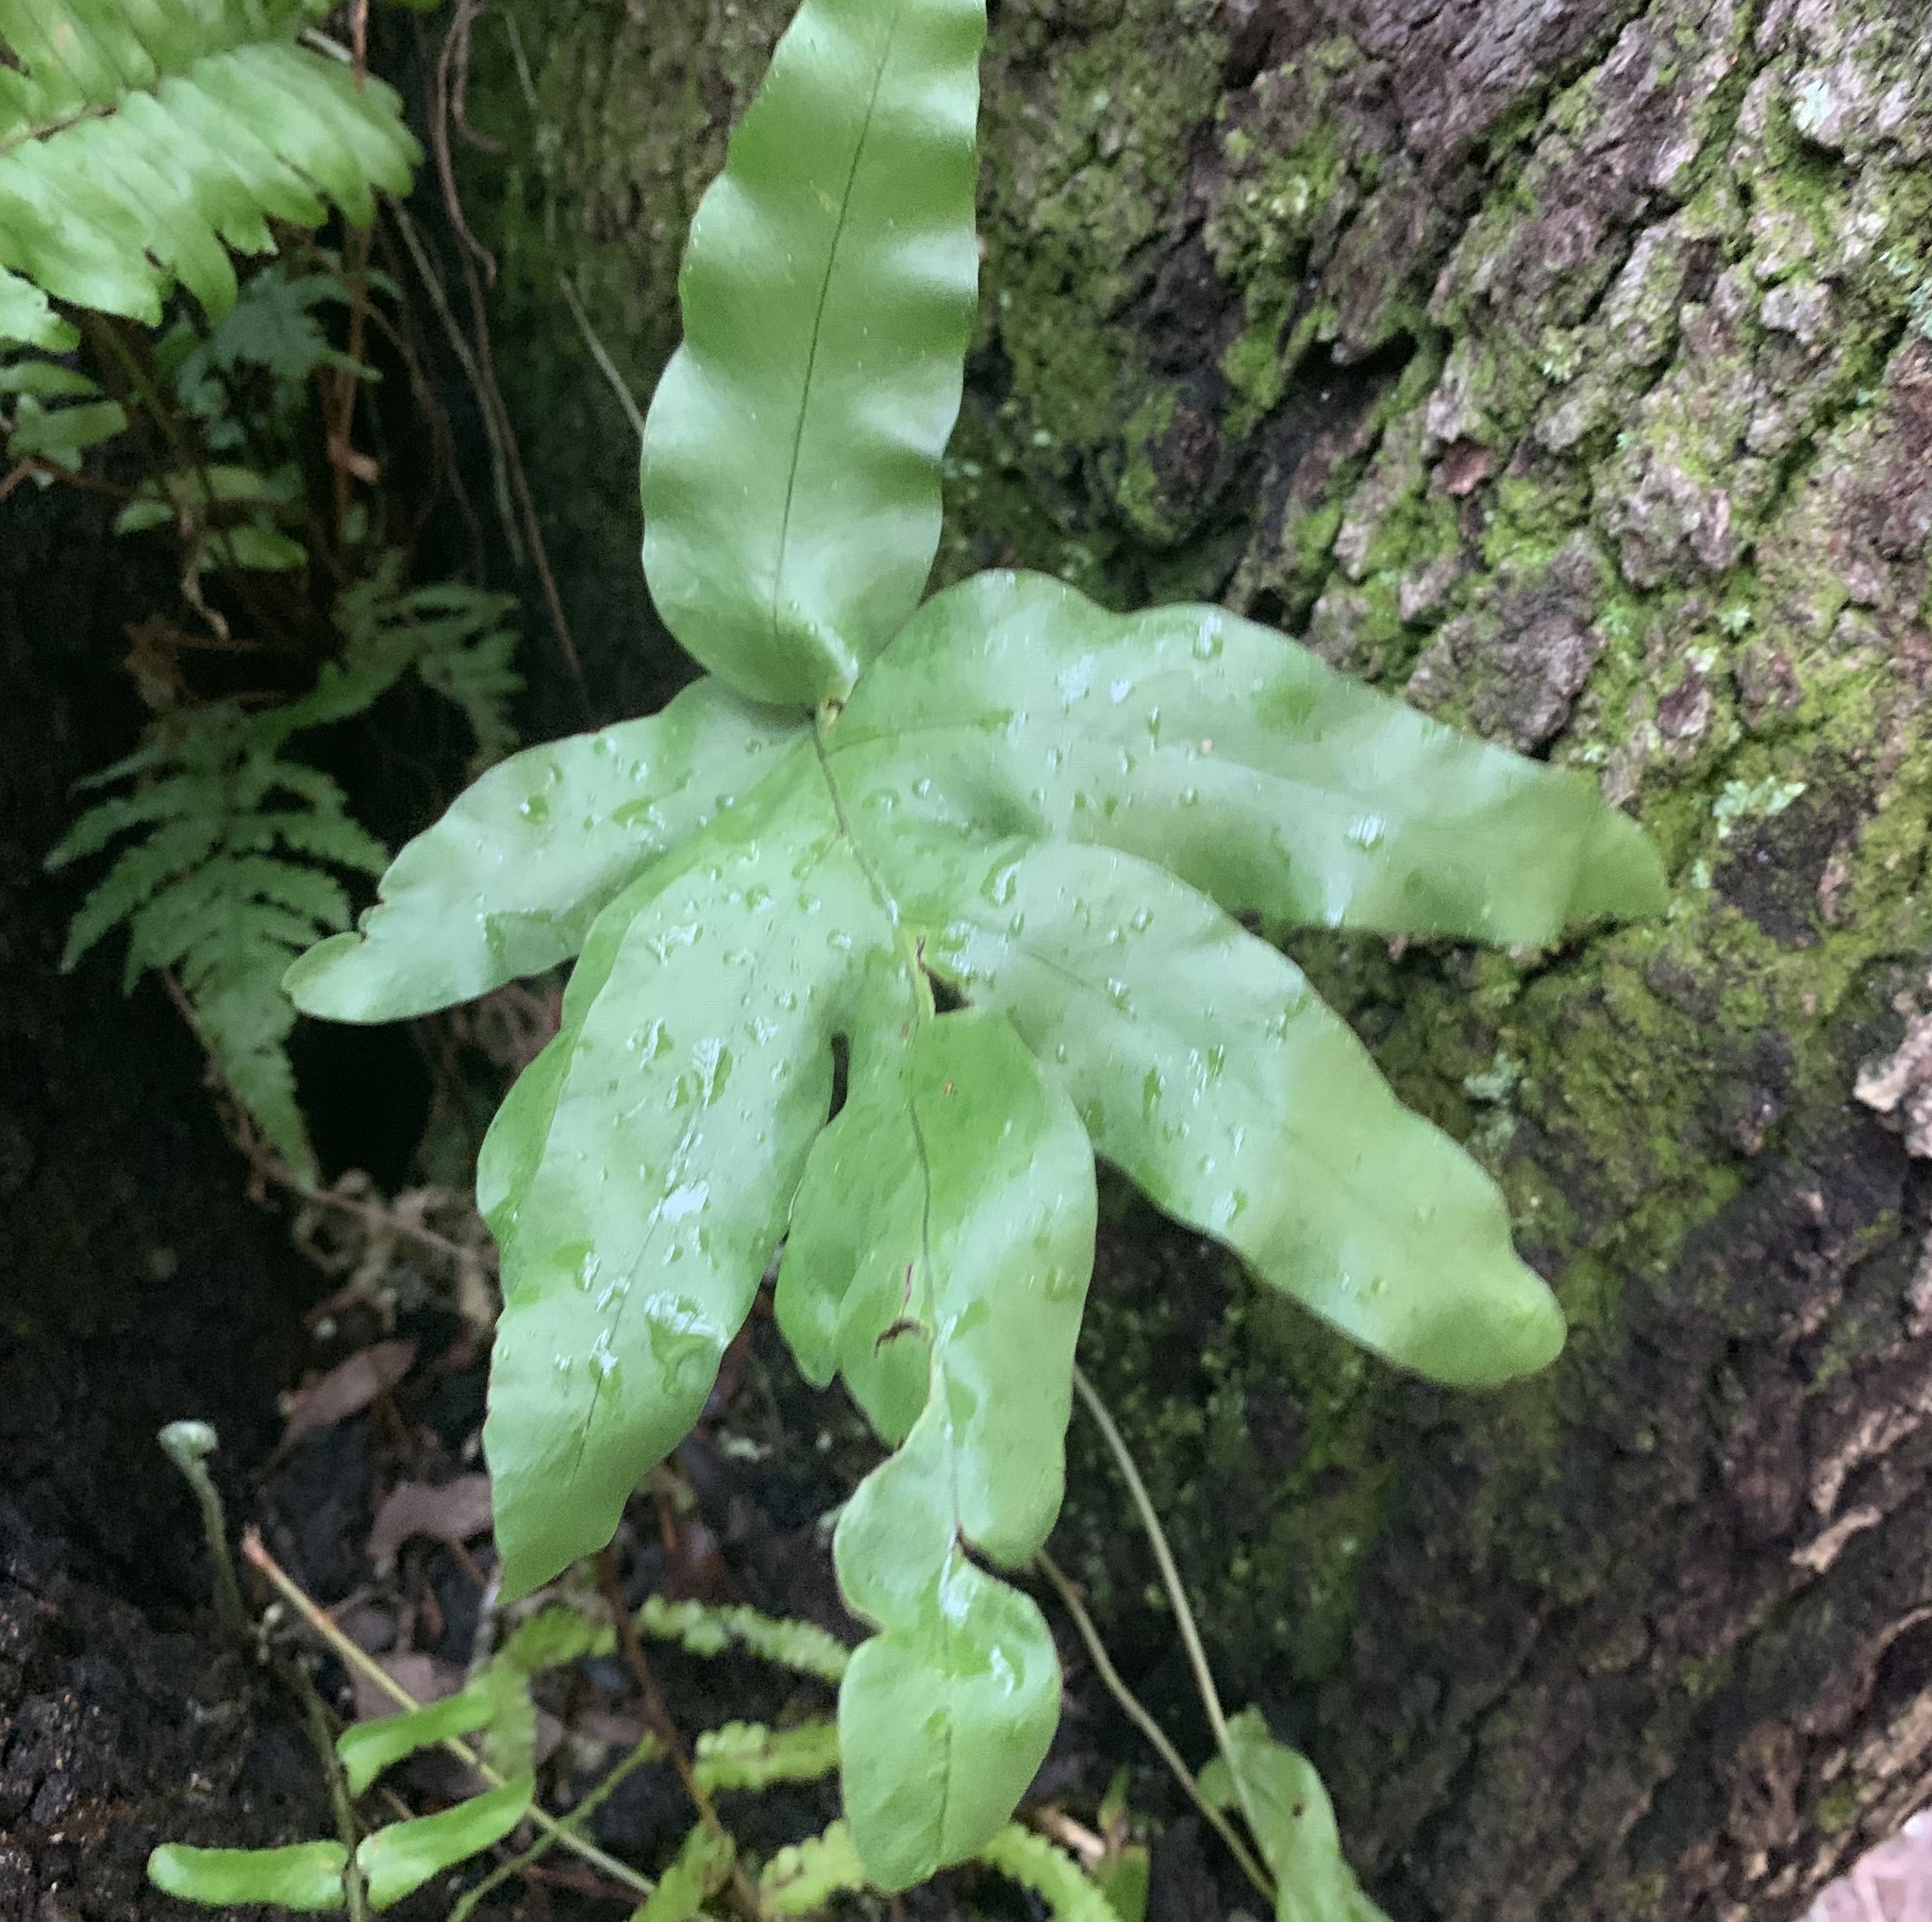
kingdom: Plantae
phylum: Tracheophyta
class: Polypodiopsida
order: Polypodiales
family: Polypodiaceae
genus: Phlebodium
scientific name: Phlebodium aureum
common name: Gold-foot fern
